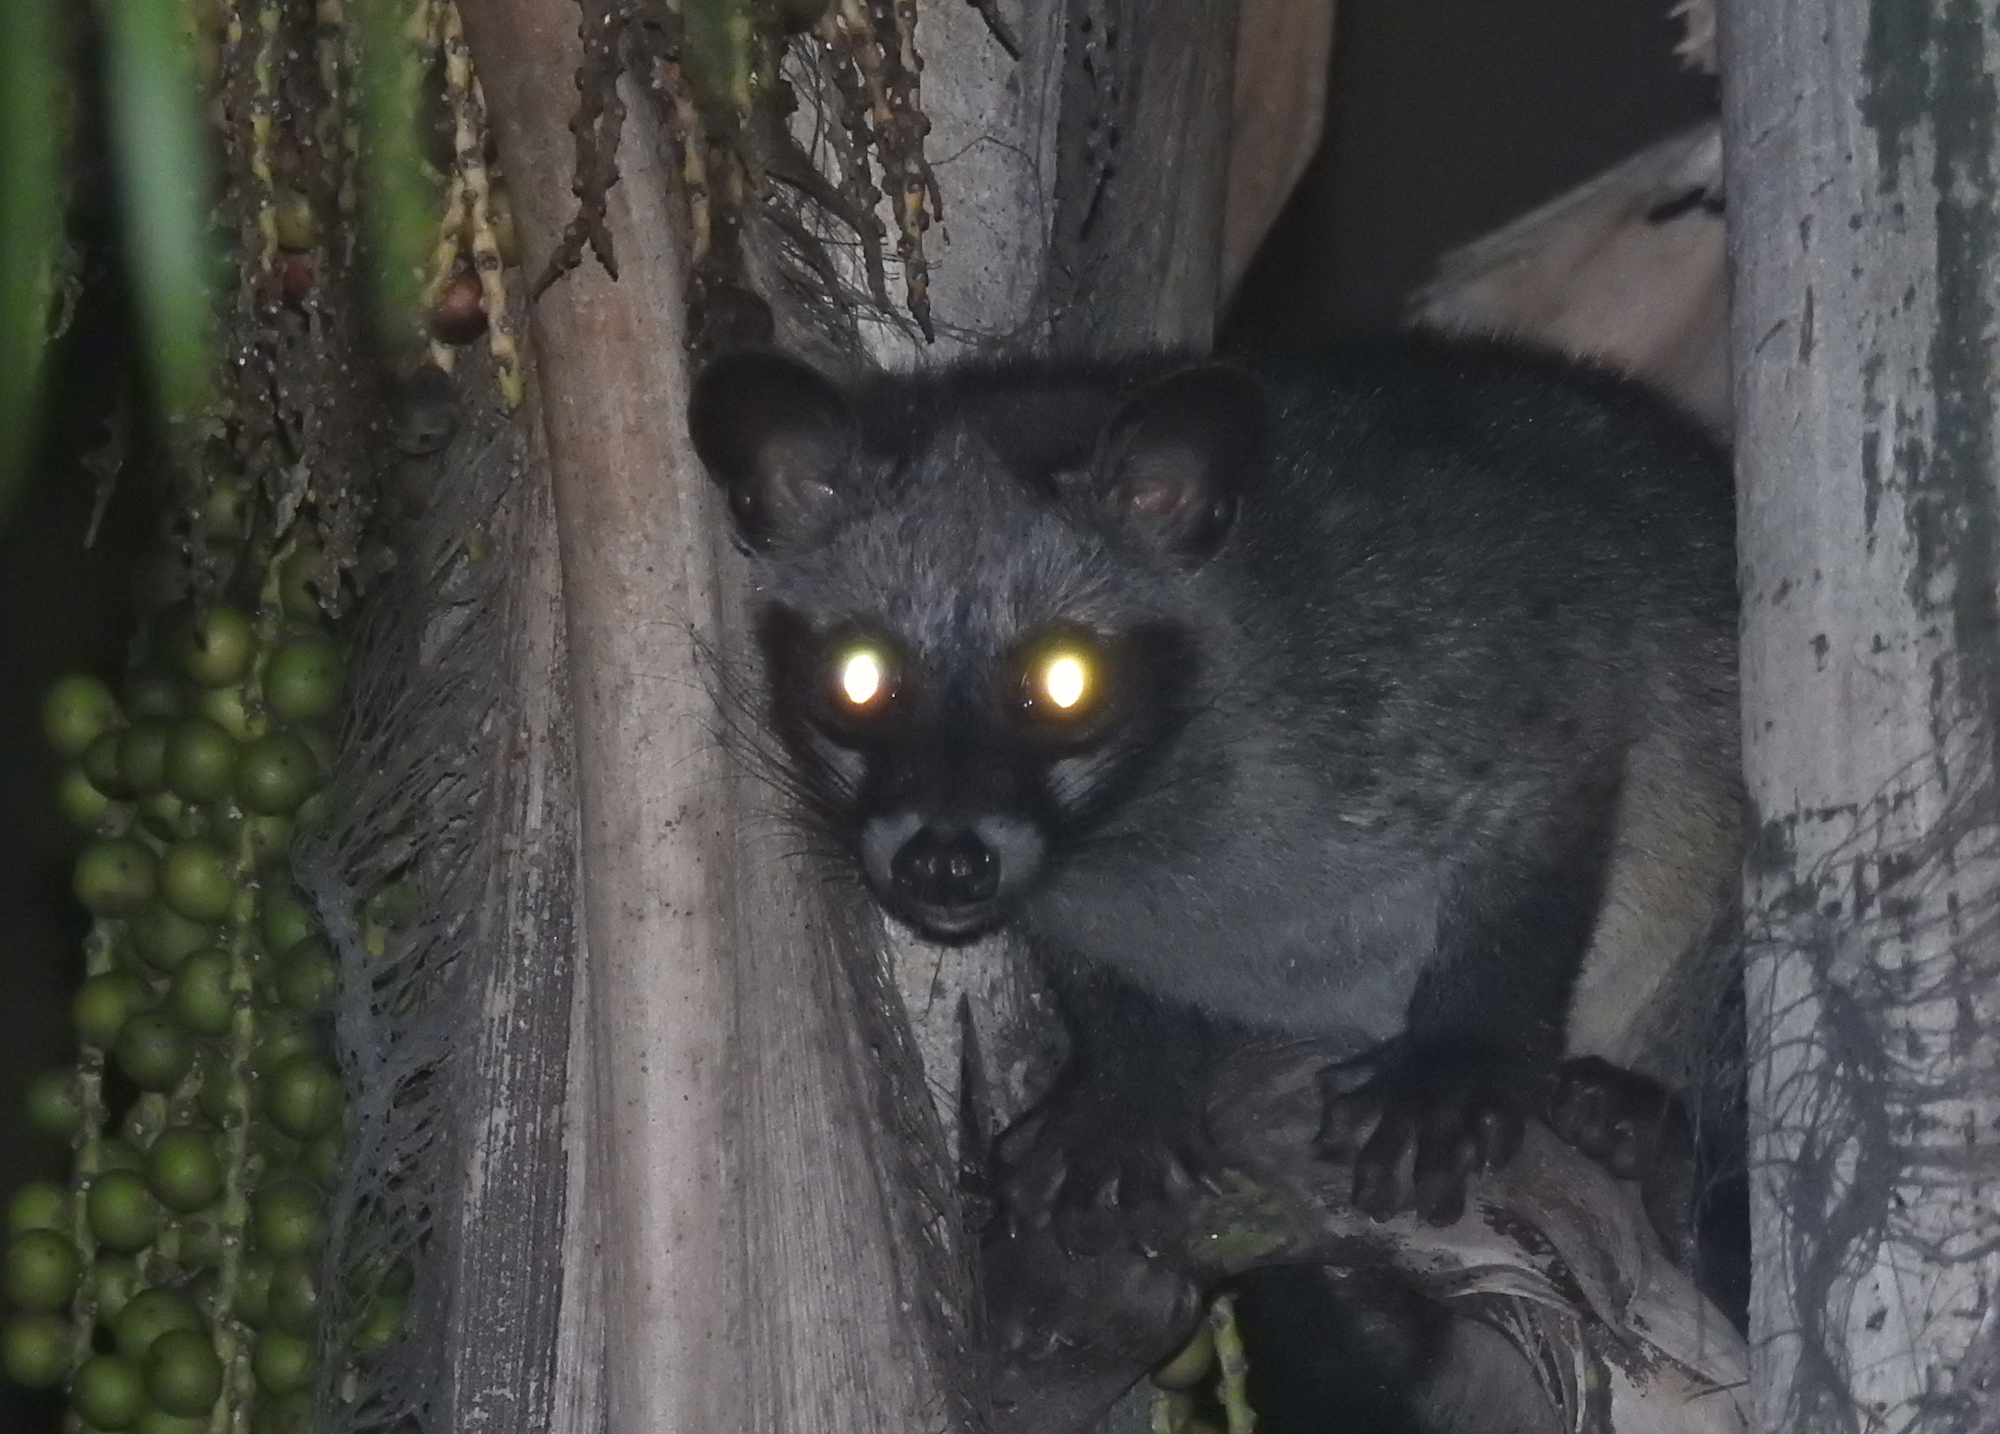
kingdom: Animalia
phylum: Chordata
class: Mammalia
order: Carnivora
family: Viverridae
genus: Paradoxurus
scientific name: Paradoxurus hermaphroditus
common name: Common palm civet
